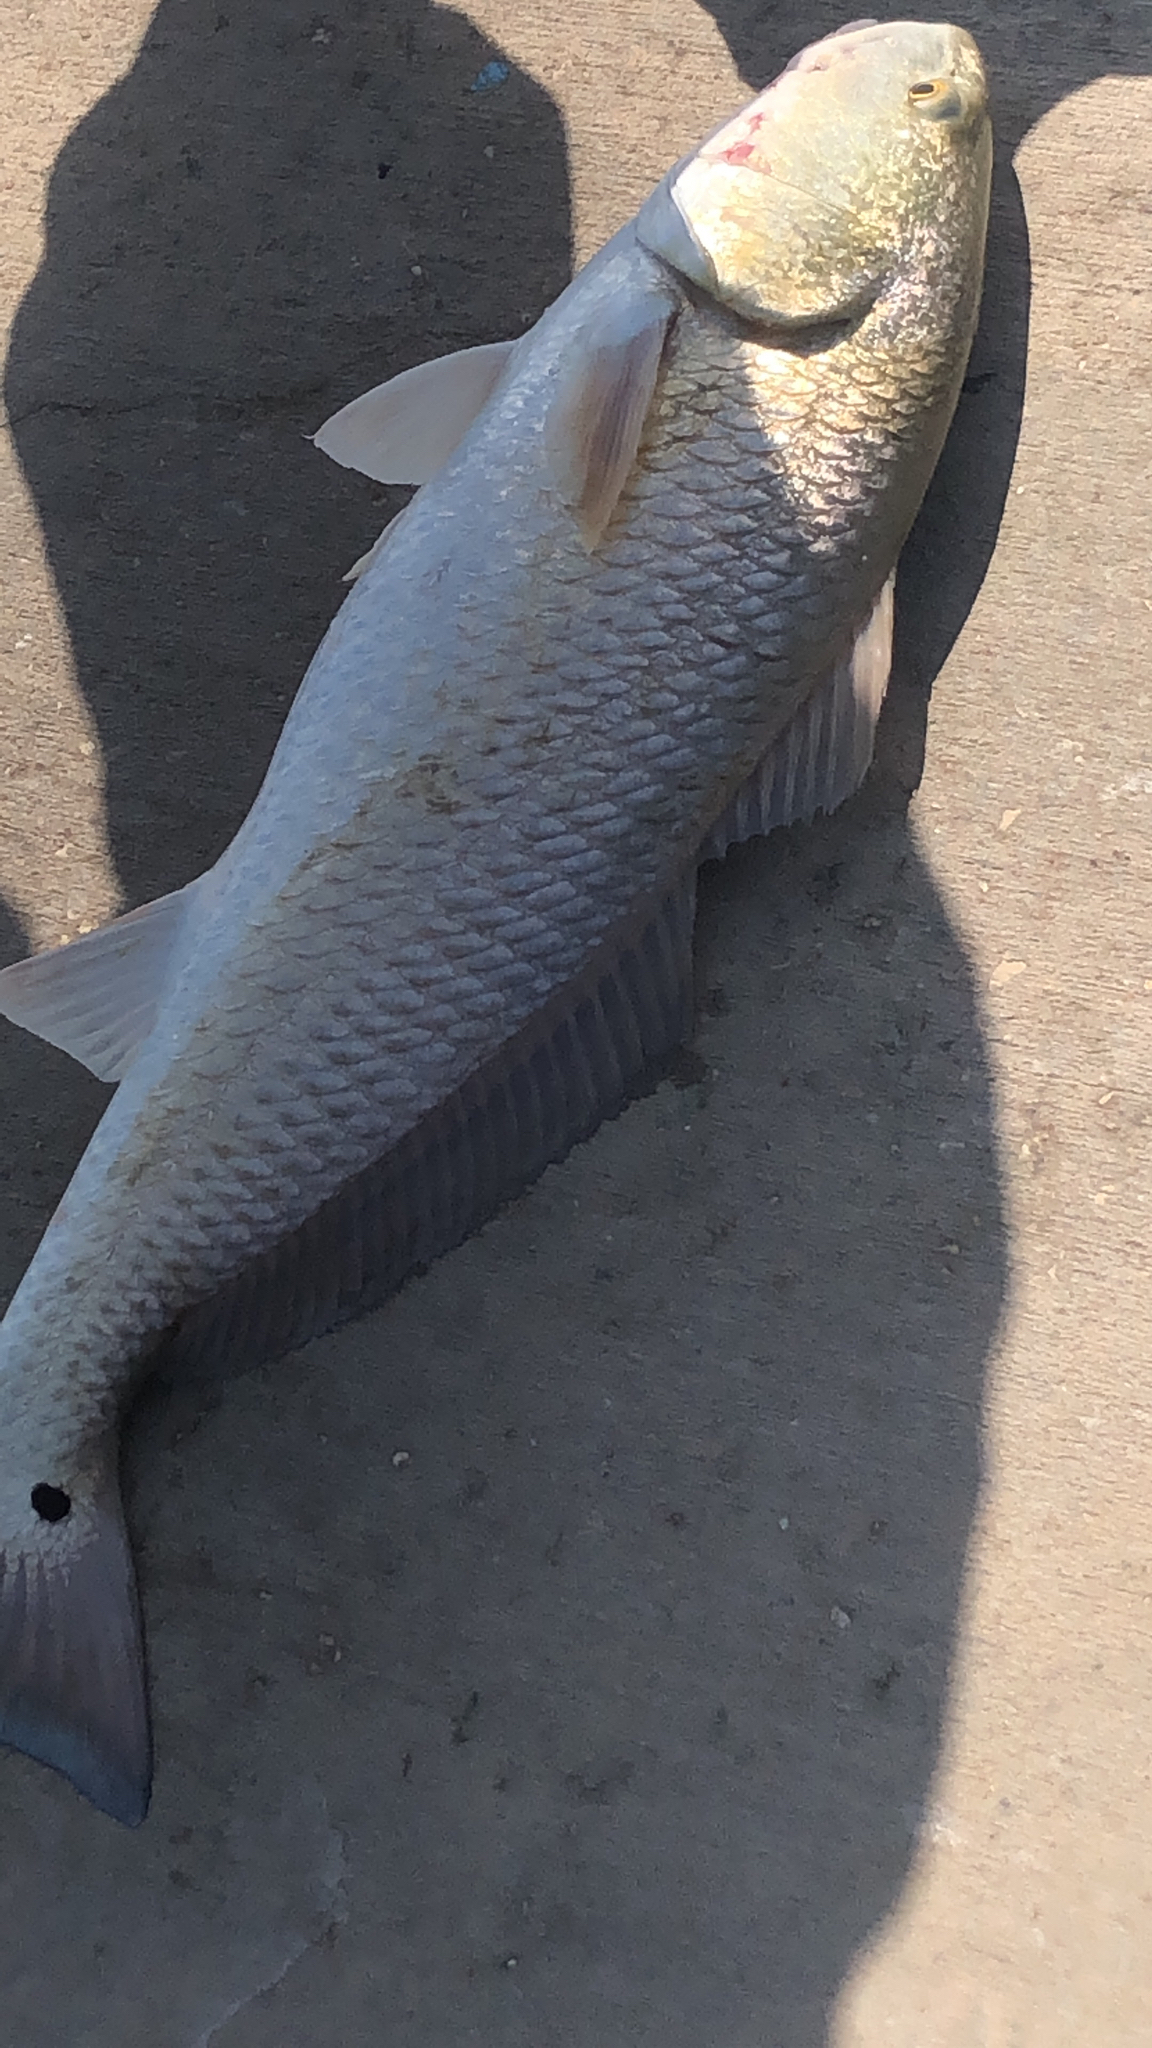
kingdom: Animalia
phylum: Chordata
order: Perciformes
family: Sciaenidae
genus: Sciaenops
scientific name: Sciaenops ocellatus
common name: Red drum
